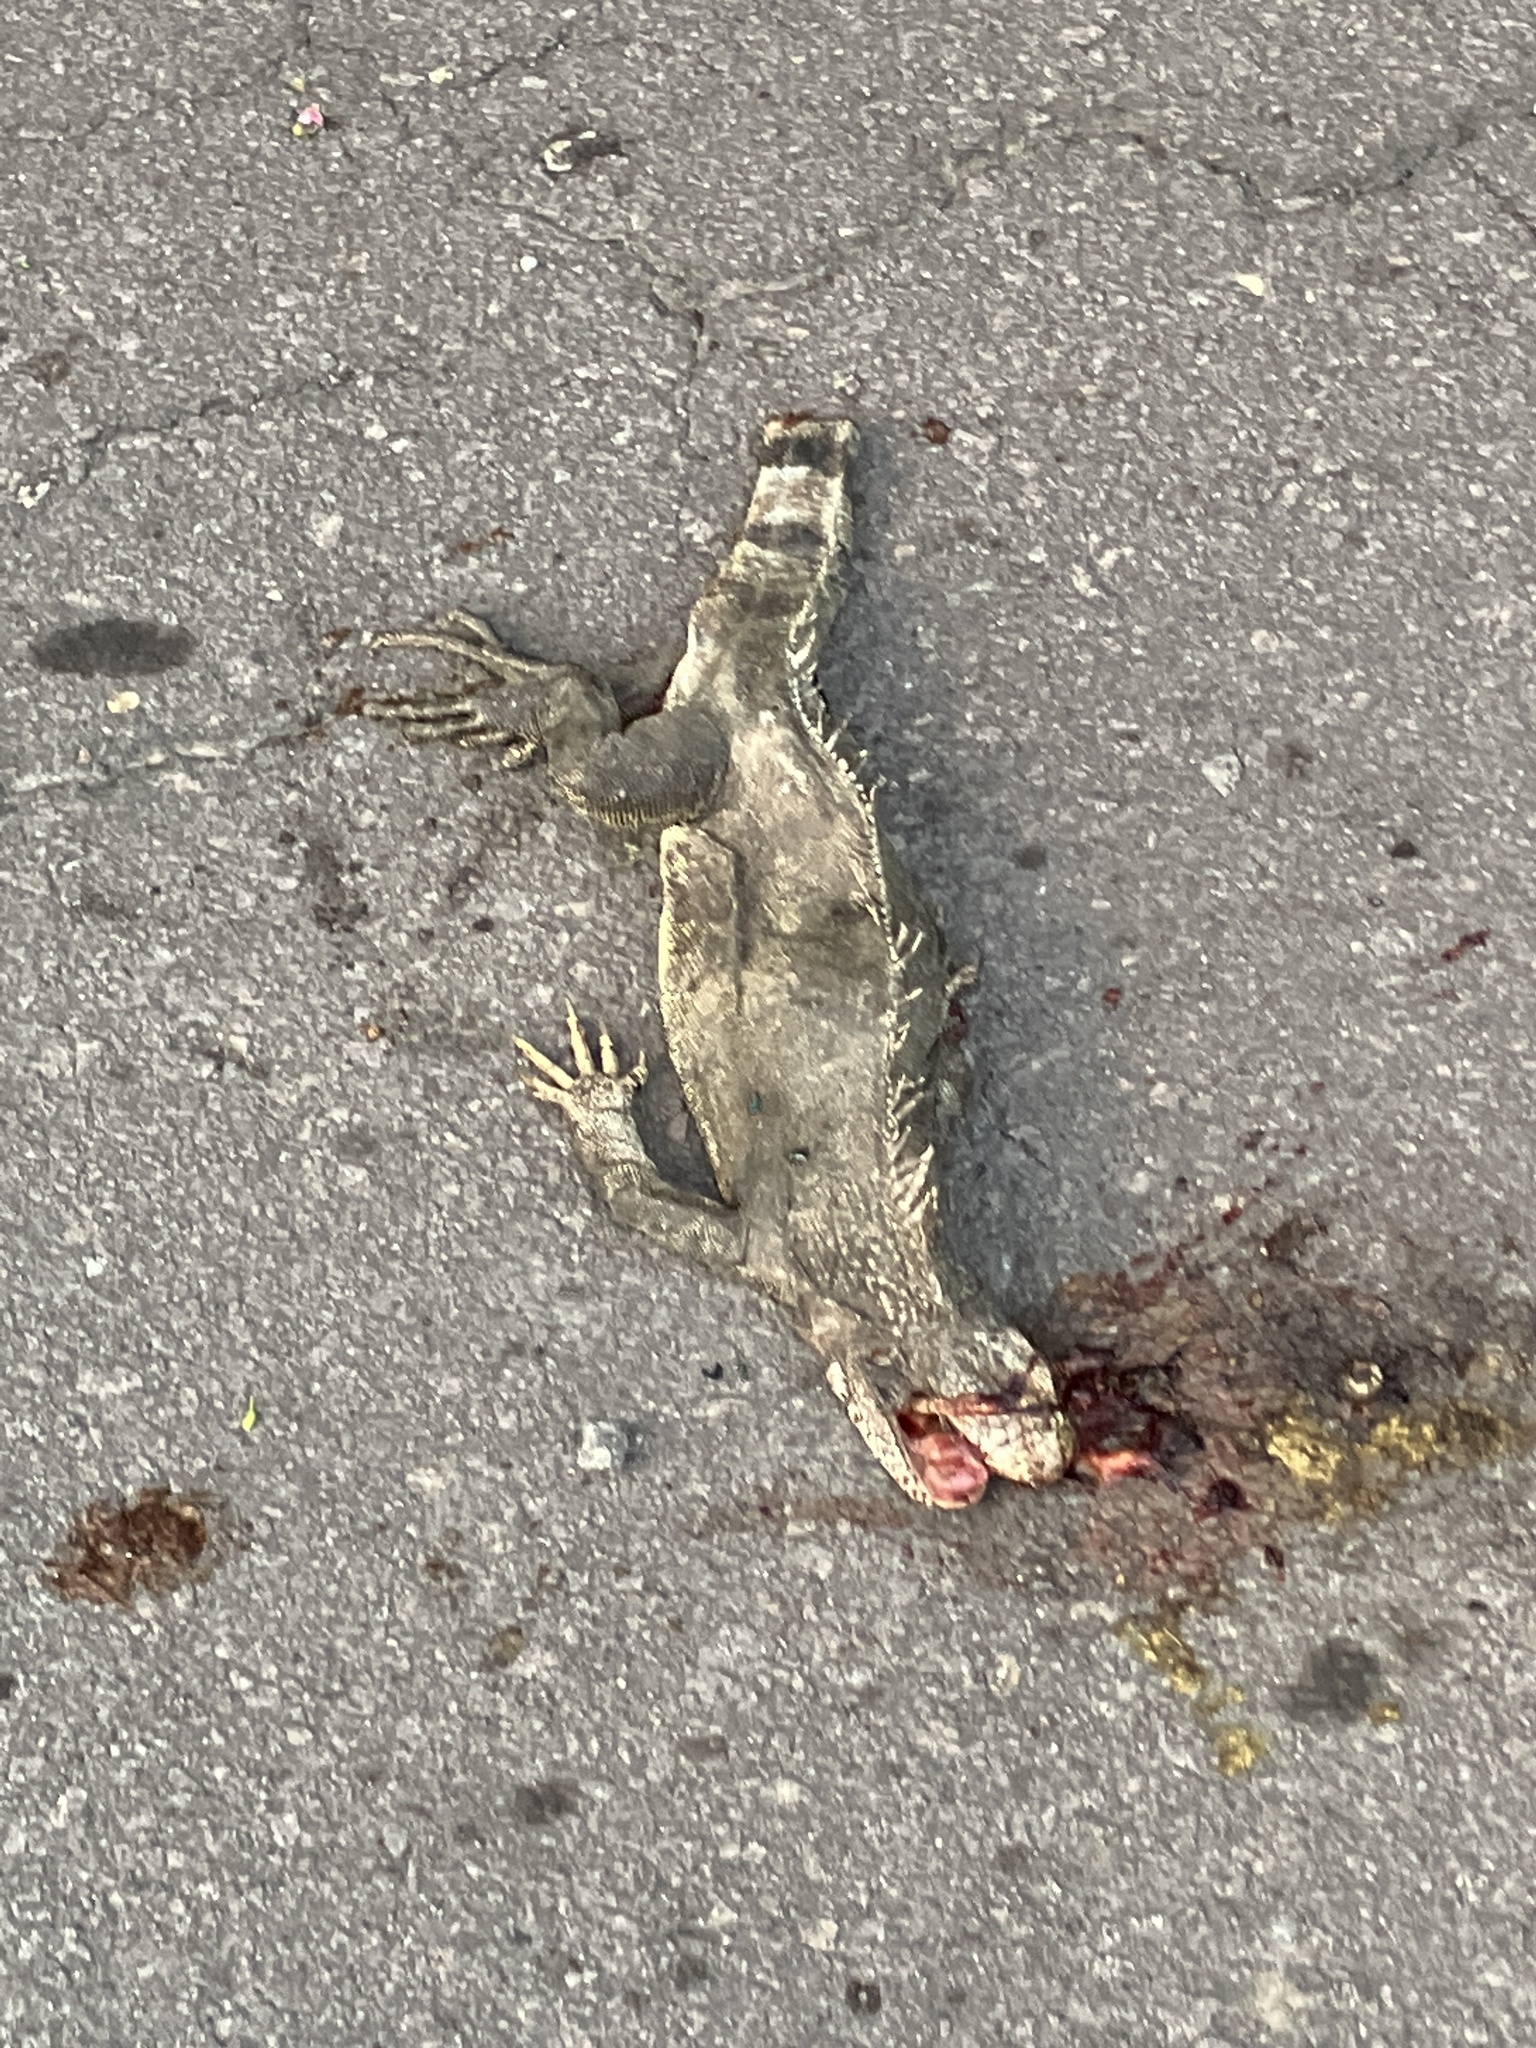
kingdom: Animalia
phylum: Chordata
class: Squamata
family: Iguanidae
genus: Iguana
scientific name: Iguana iguana
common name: Green iguana
